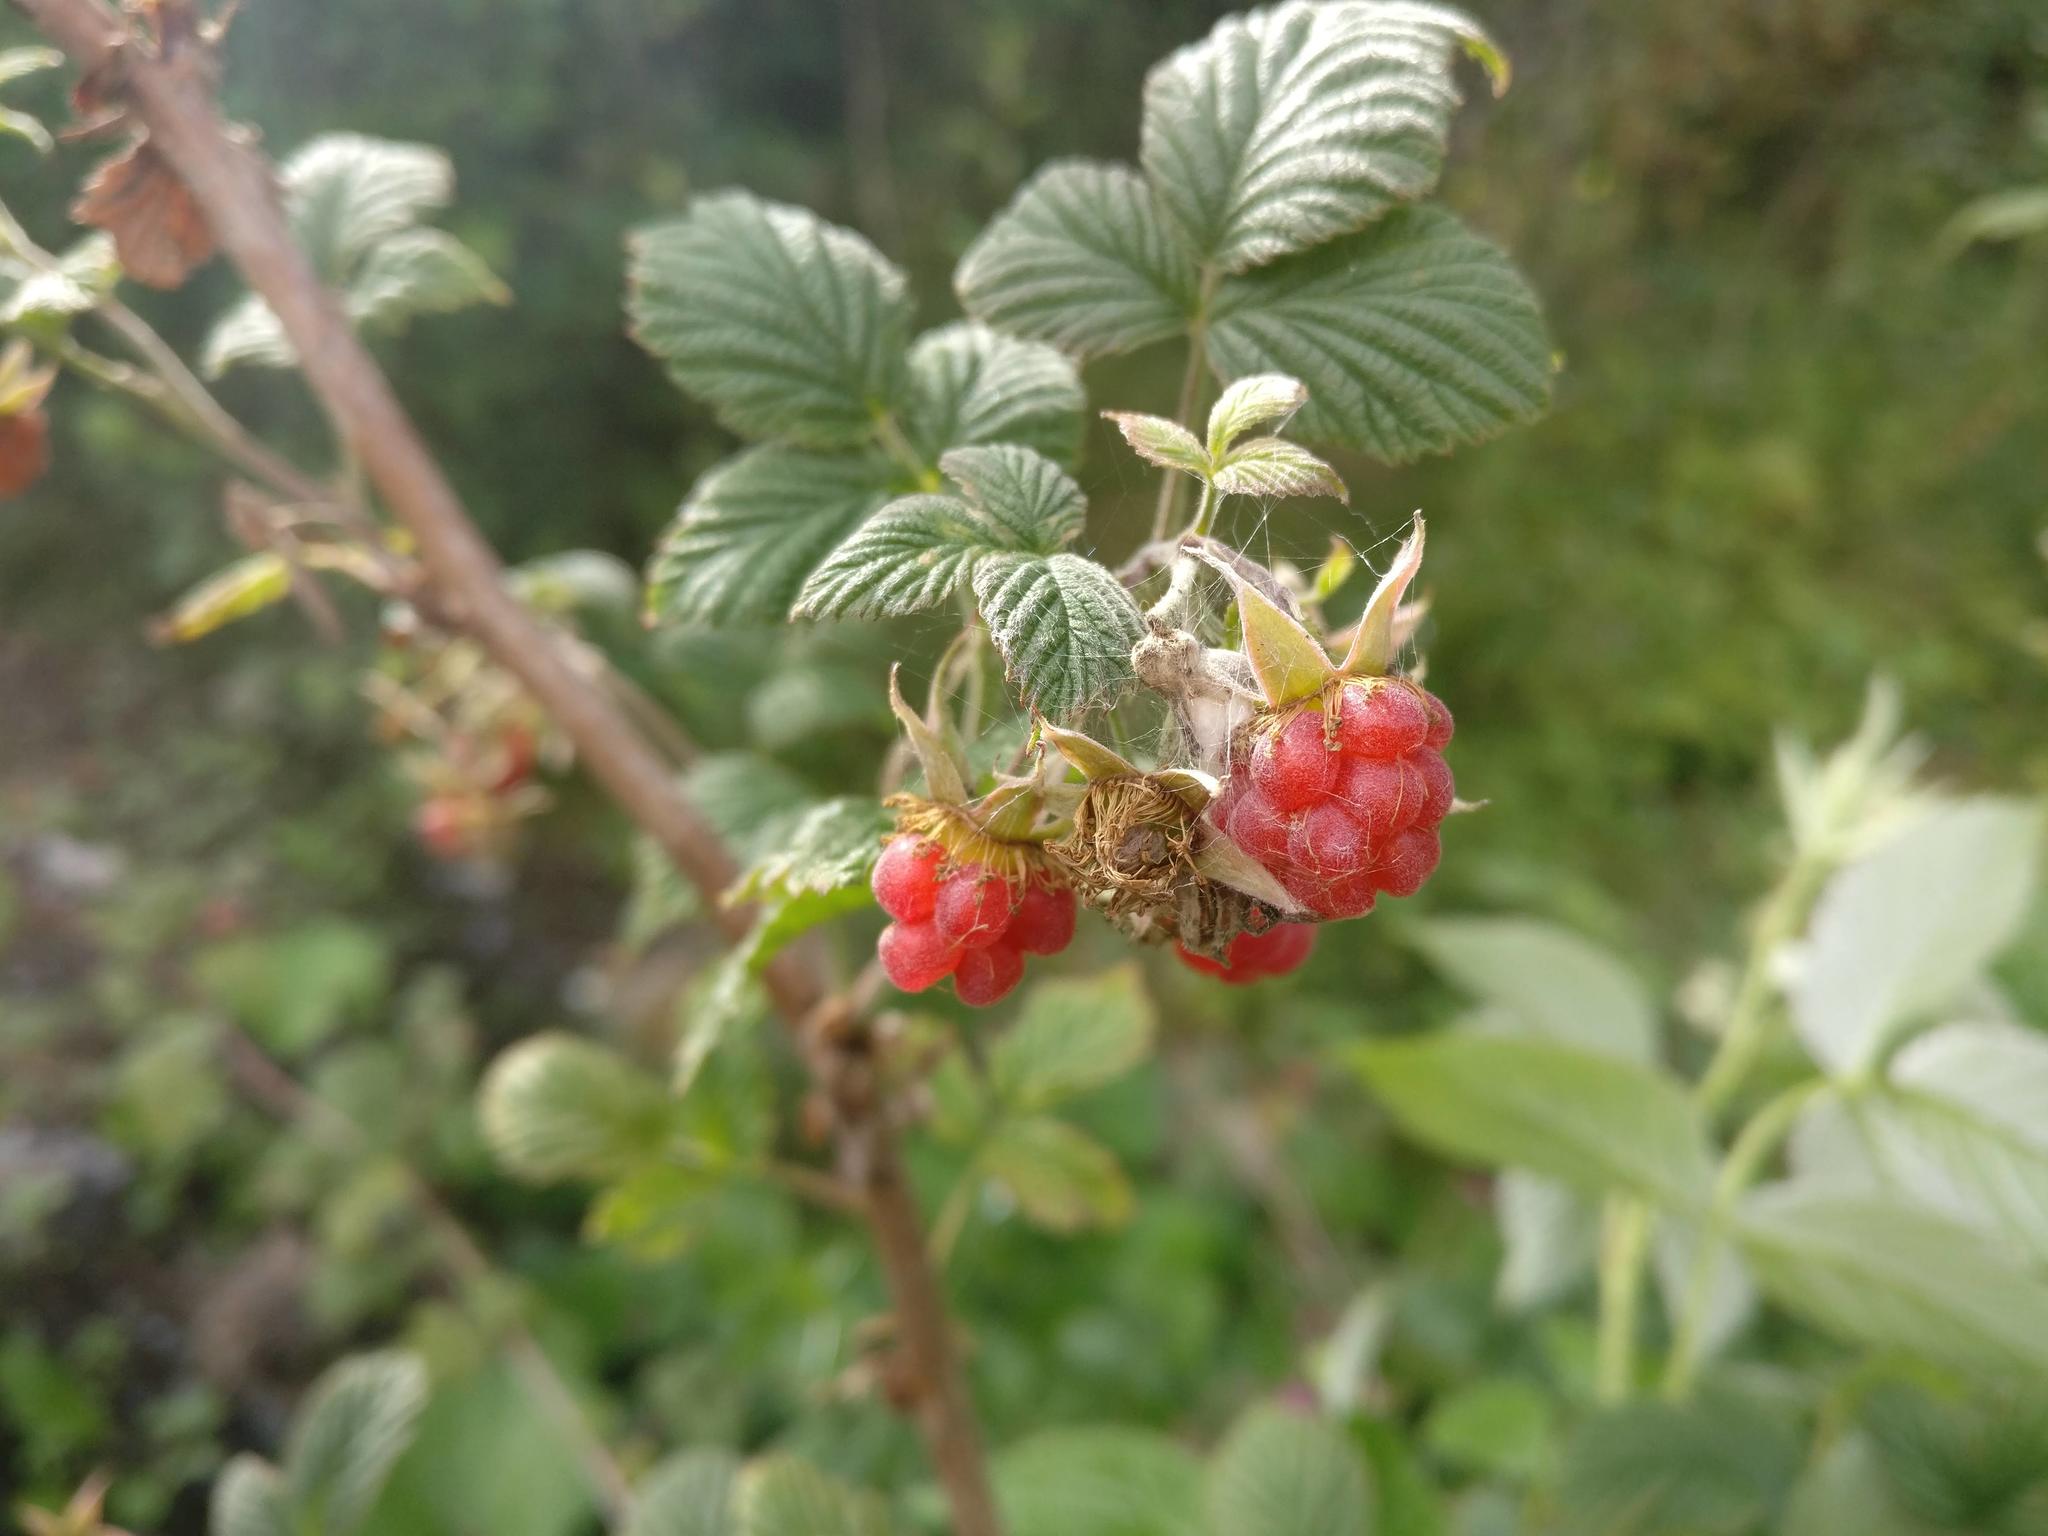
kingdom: Plantae
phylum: Tracheophyta
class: Magnoliopsida
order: Rosales
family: Rosaceae
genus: Rubus
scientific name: Rubus idaeus
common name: Raspberry
